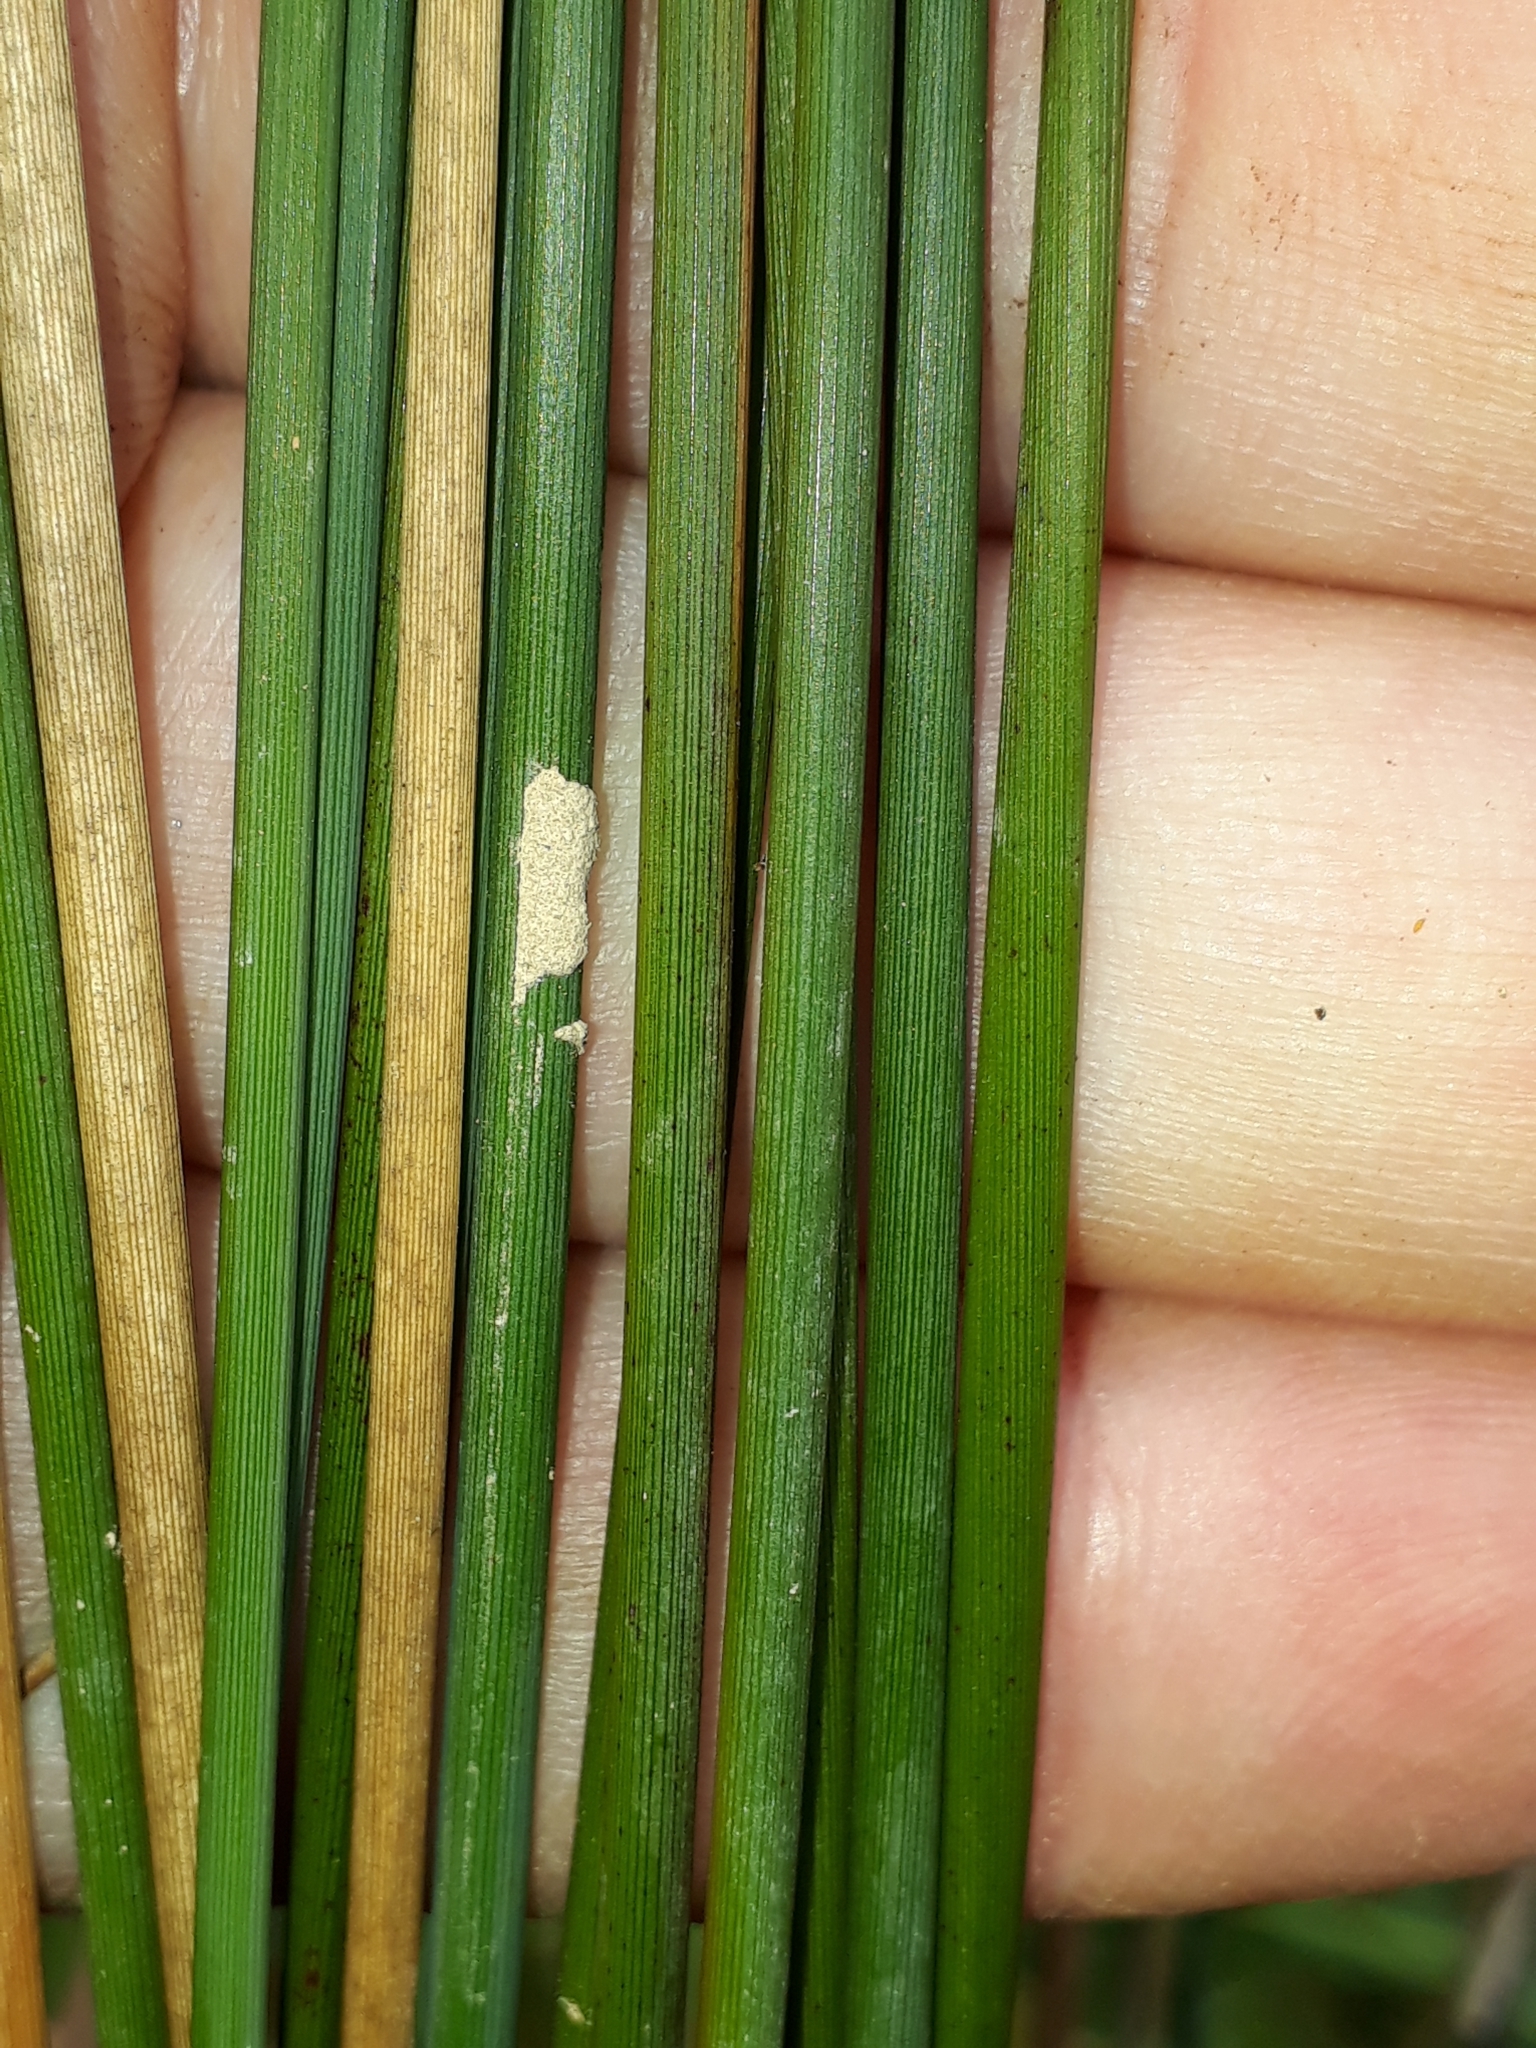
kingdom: Plantae
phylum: Tracheophyta
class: Liliopsida
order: Poales
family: Juncaceae
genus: Juncus
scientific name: Juncus sarophorus
